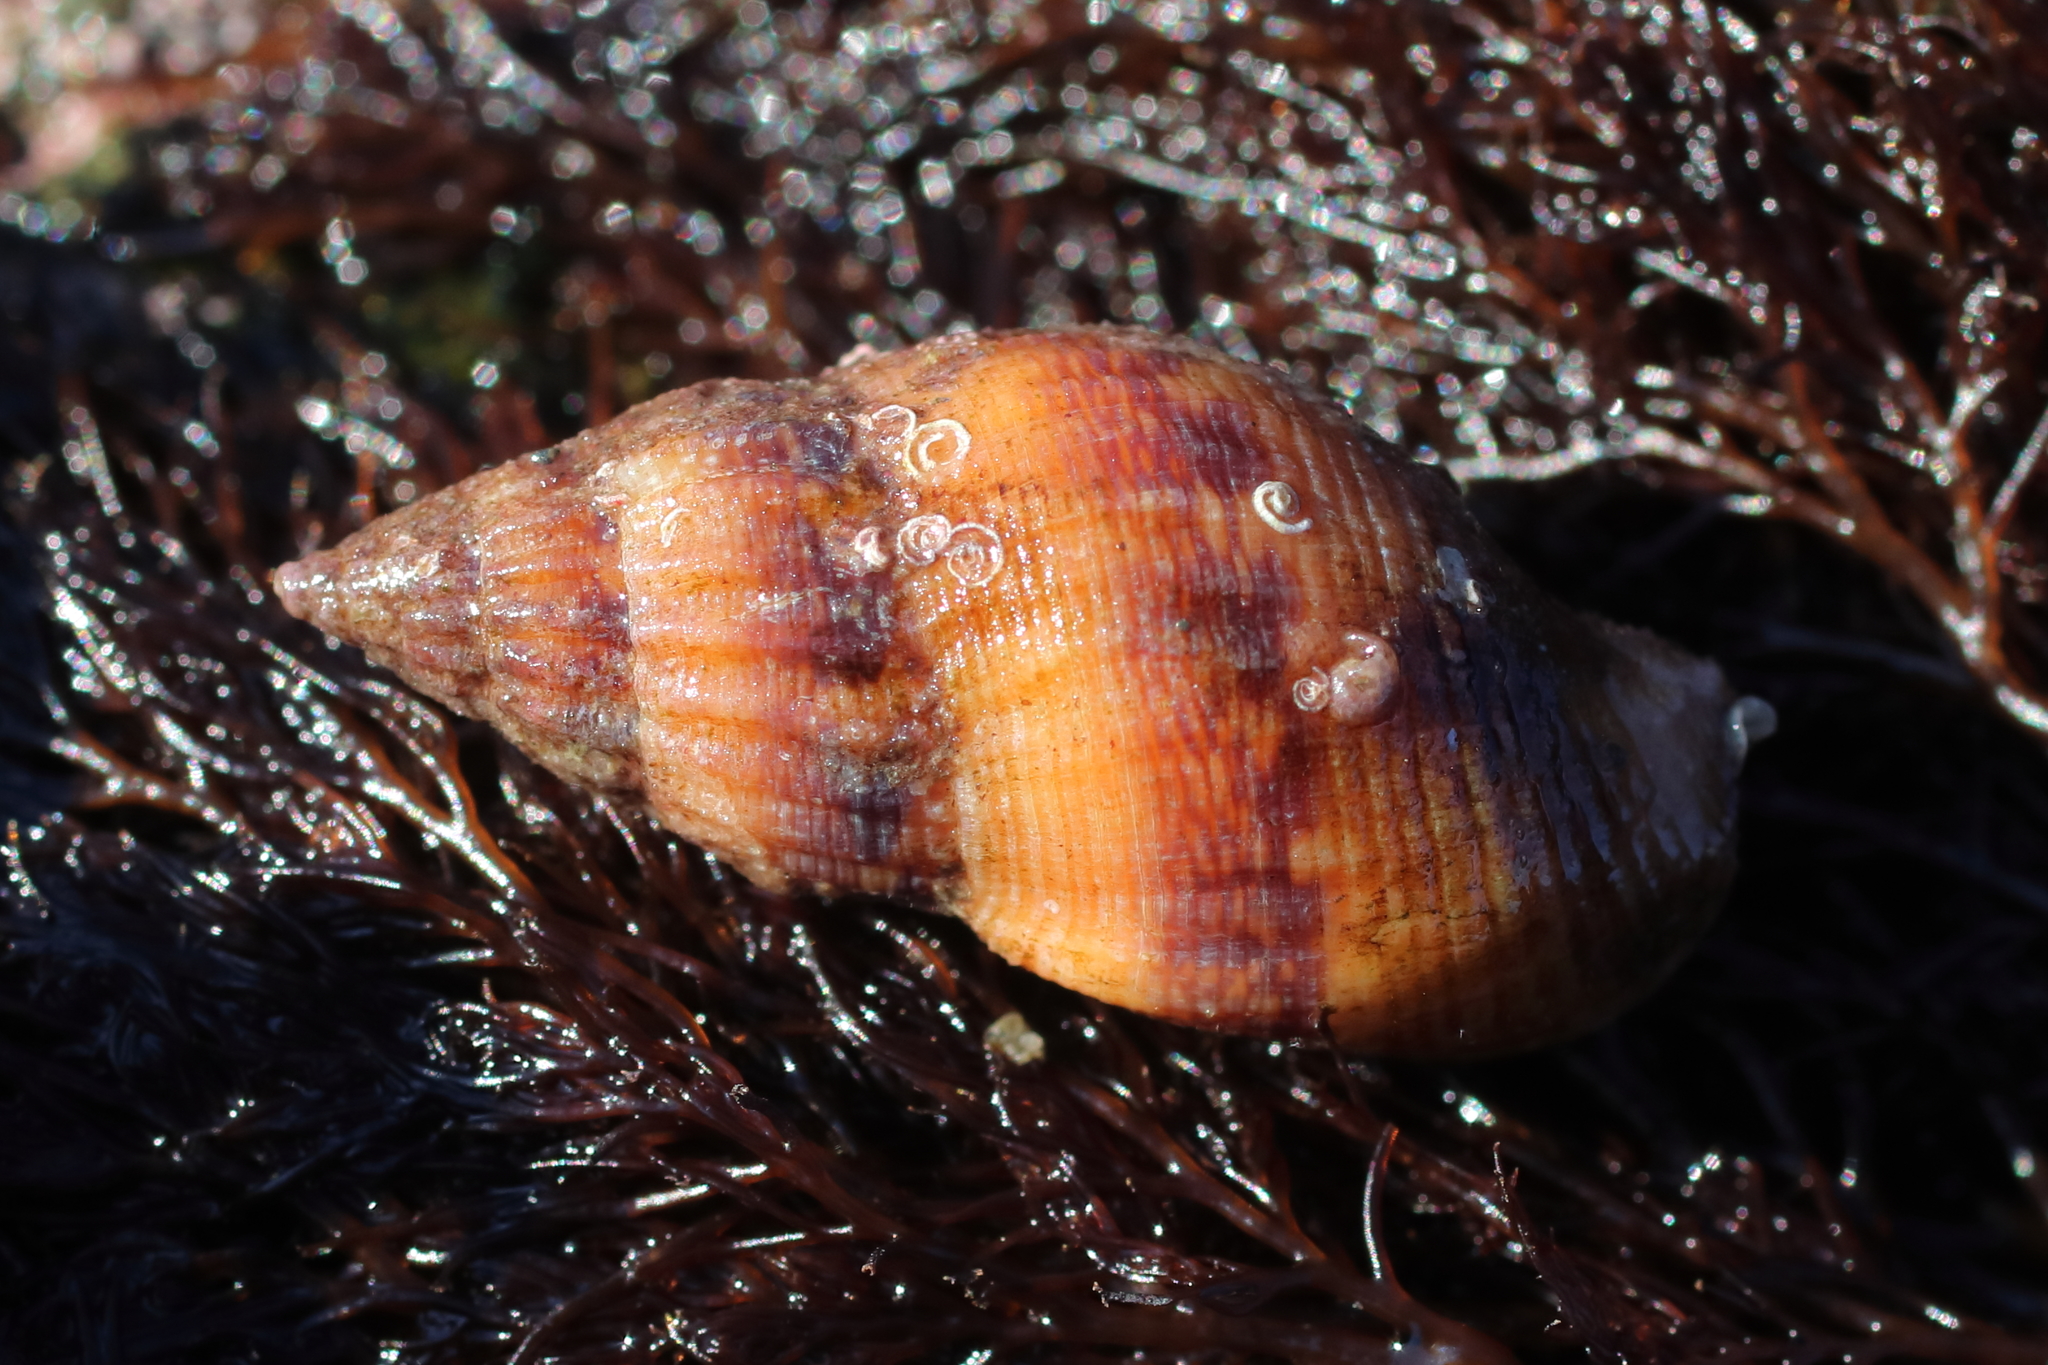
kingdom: Animalia
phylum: Mollusca
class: Gastropoda
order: Neogastropoda
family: Columbellidae
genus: Amphissa
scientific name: Amphissa columbiana
